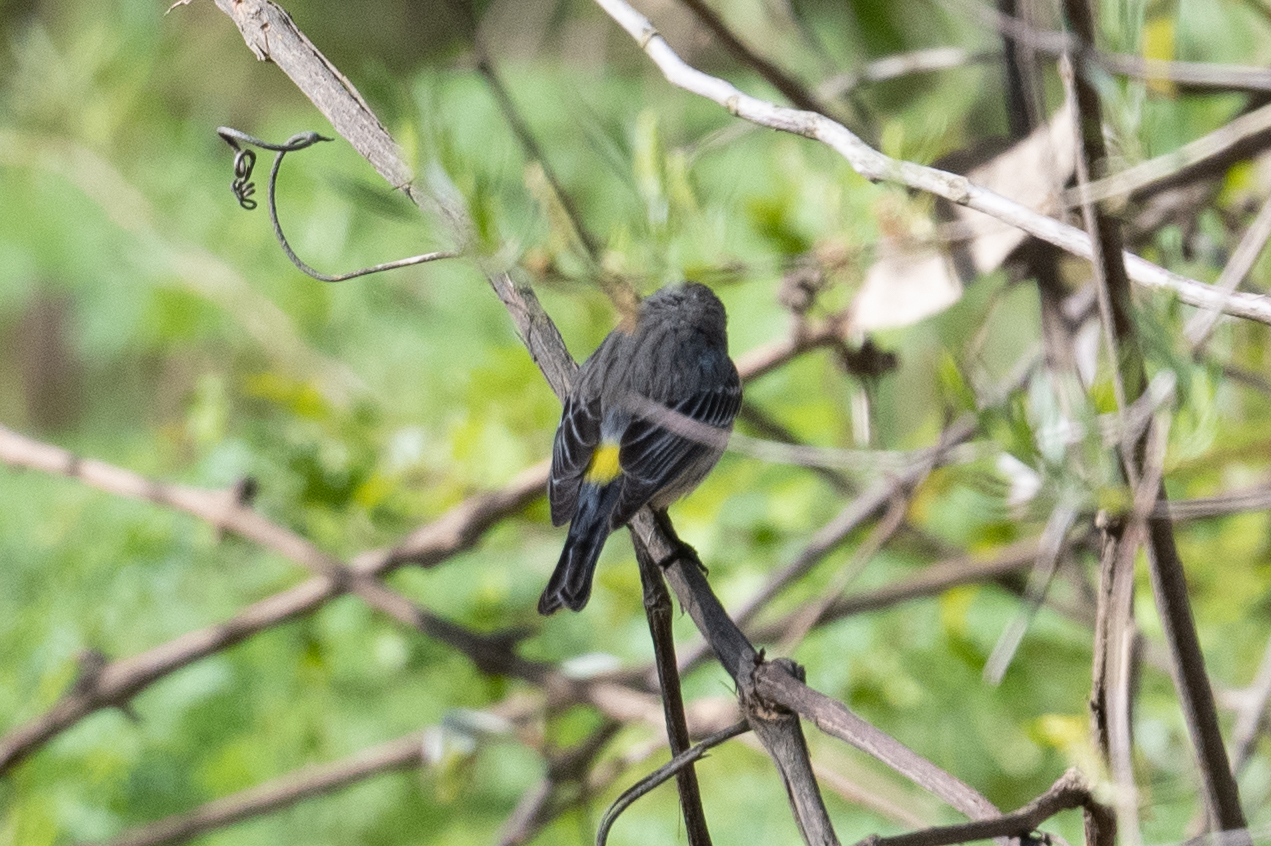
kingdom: Animalia
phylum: Chordata
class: Aves
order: Passeriformes
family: Parulidae
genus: Setophaga
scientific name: Setophaga coronata
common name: Myrtle warbler
